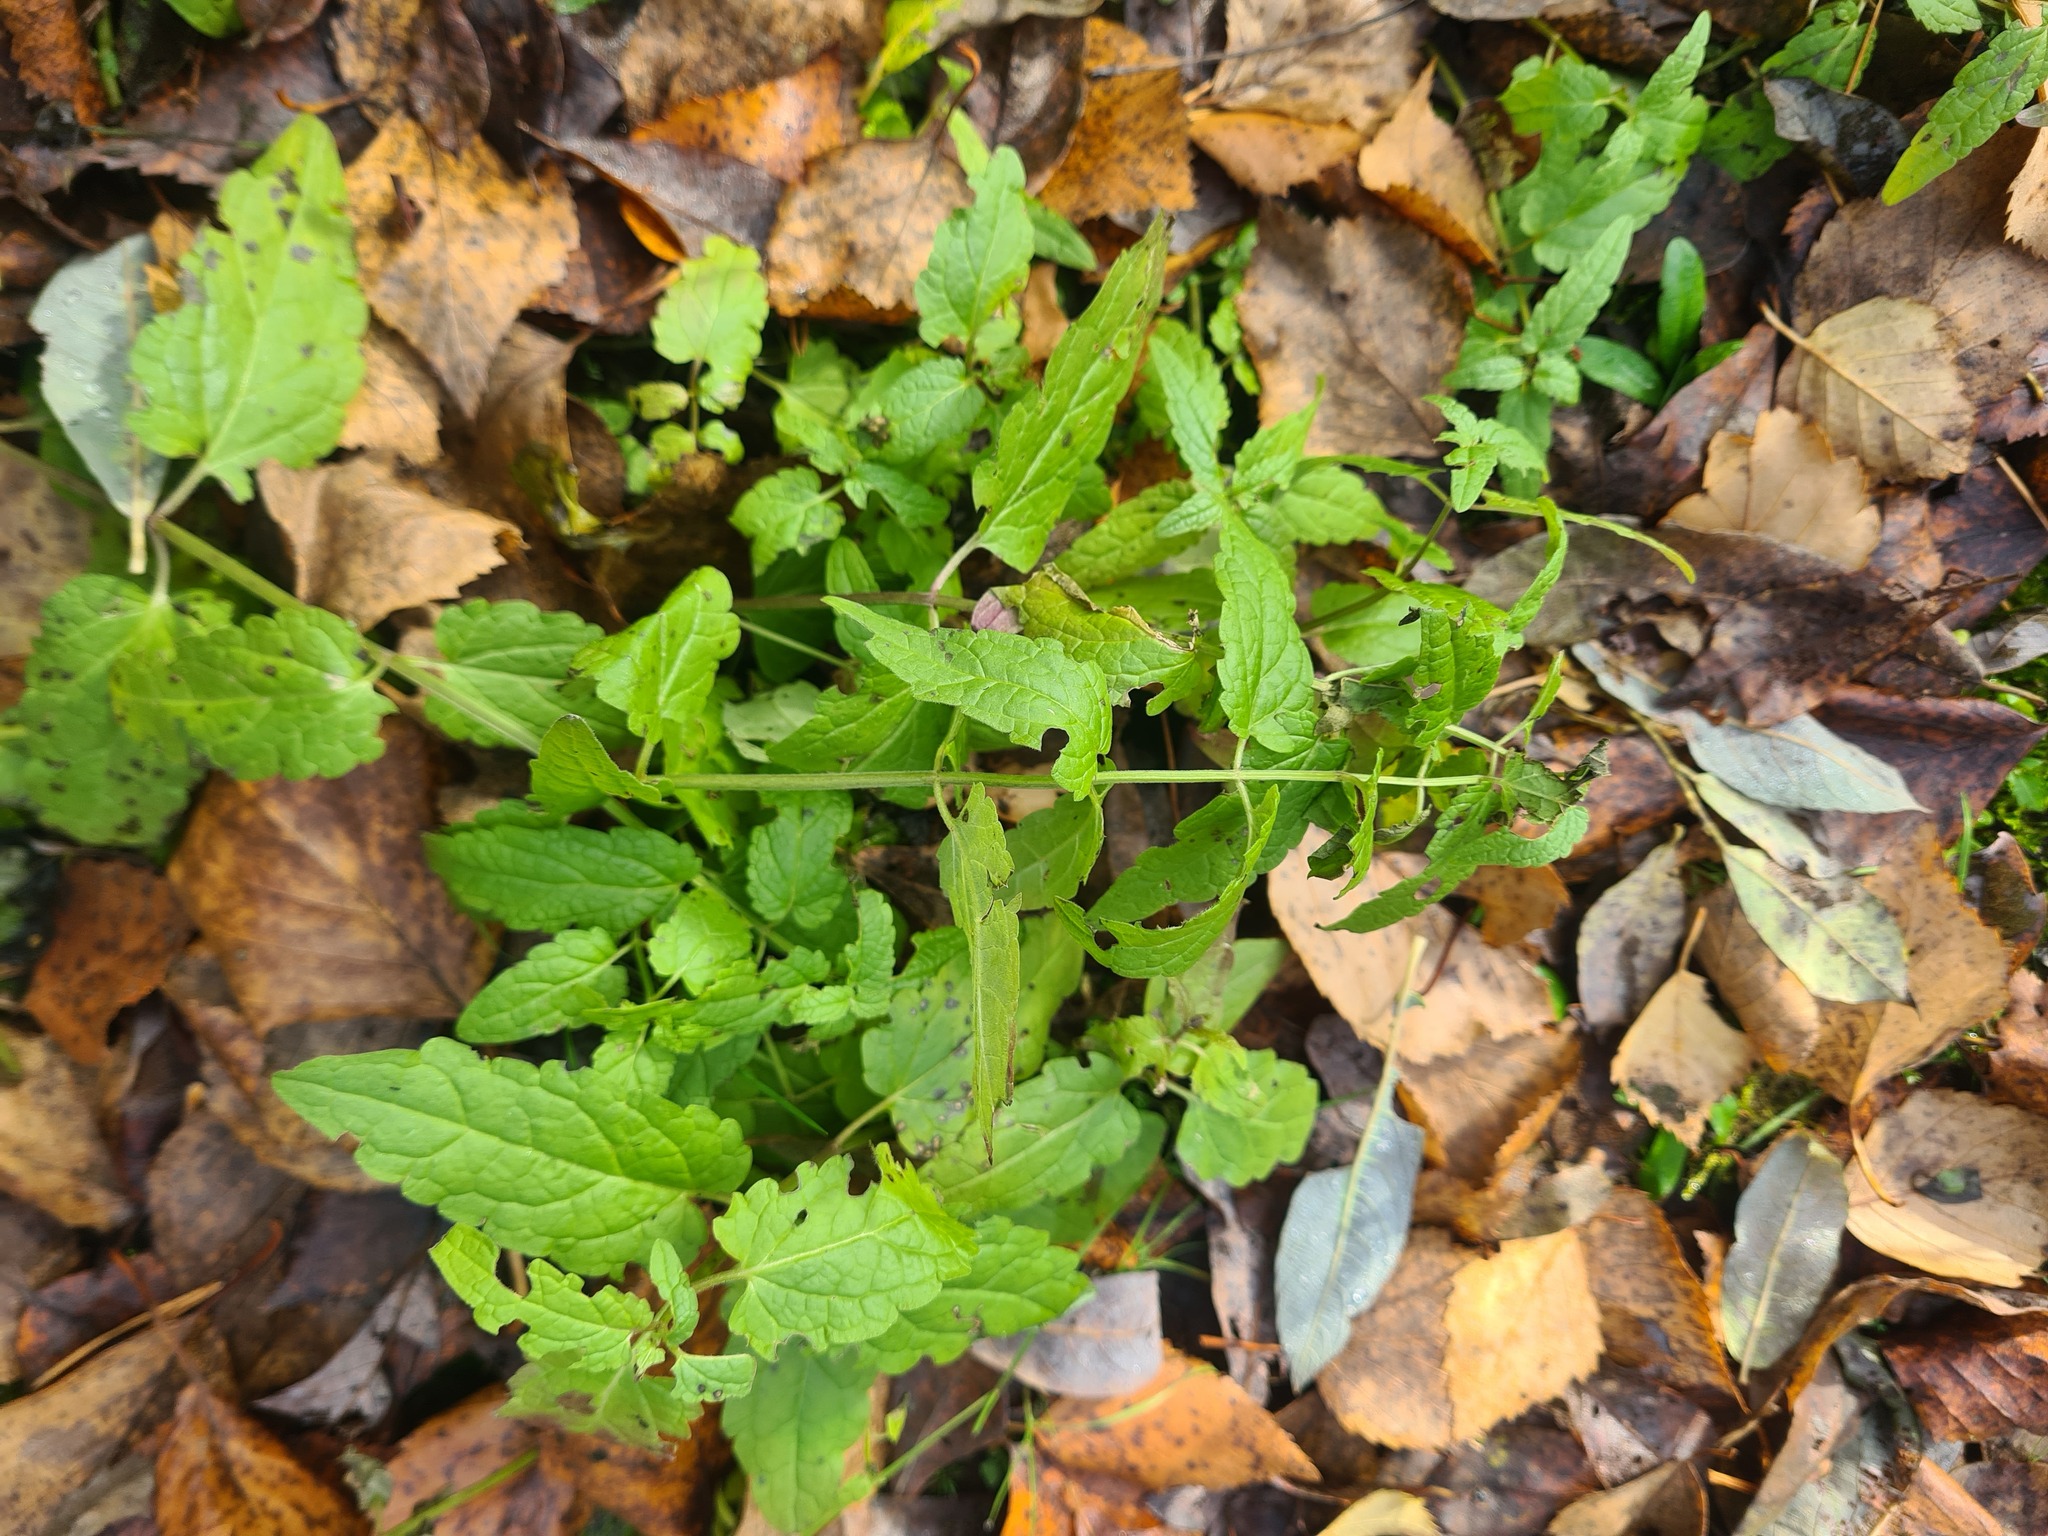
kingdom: Plantae
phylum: Tracheophyta
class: Magnoliopsida
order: Lamiales
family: Lamiaceae
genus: Scutellaria
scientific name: Scutellaria galericulata
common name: Skullcap
